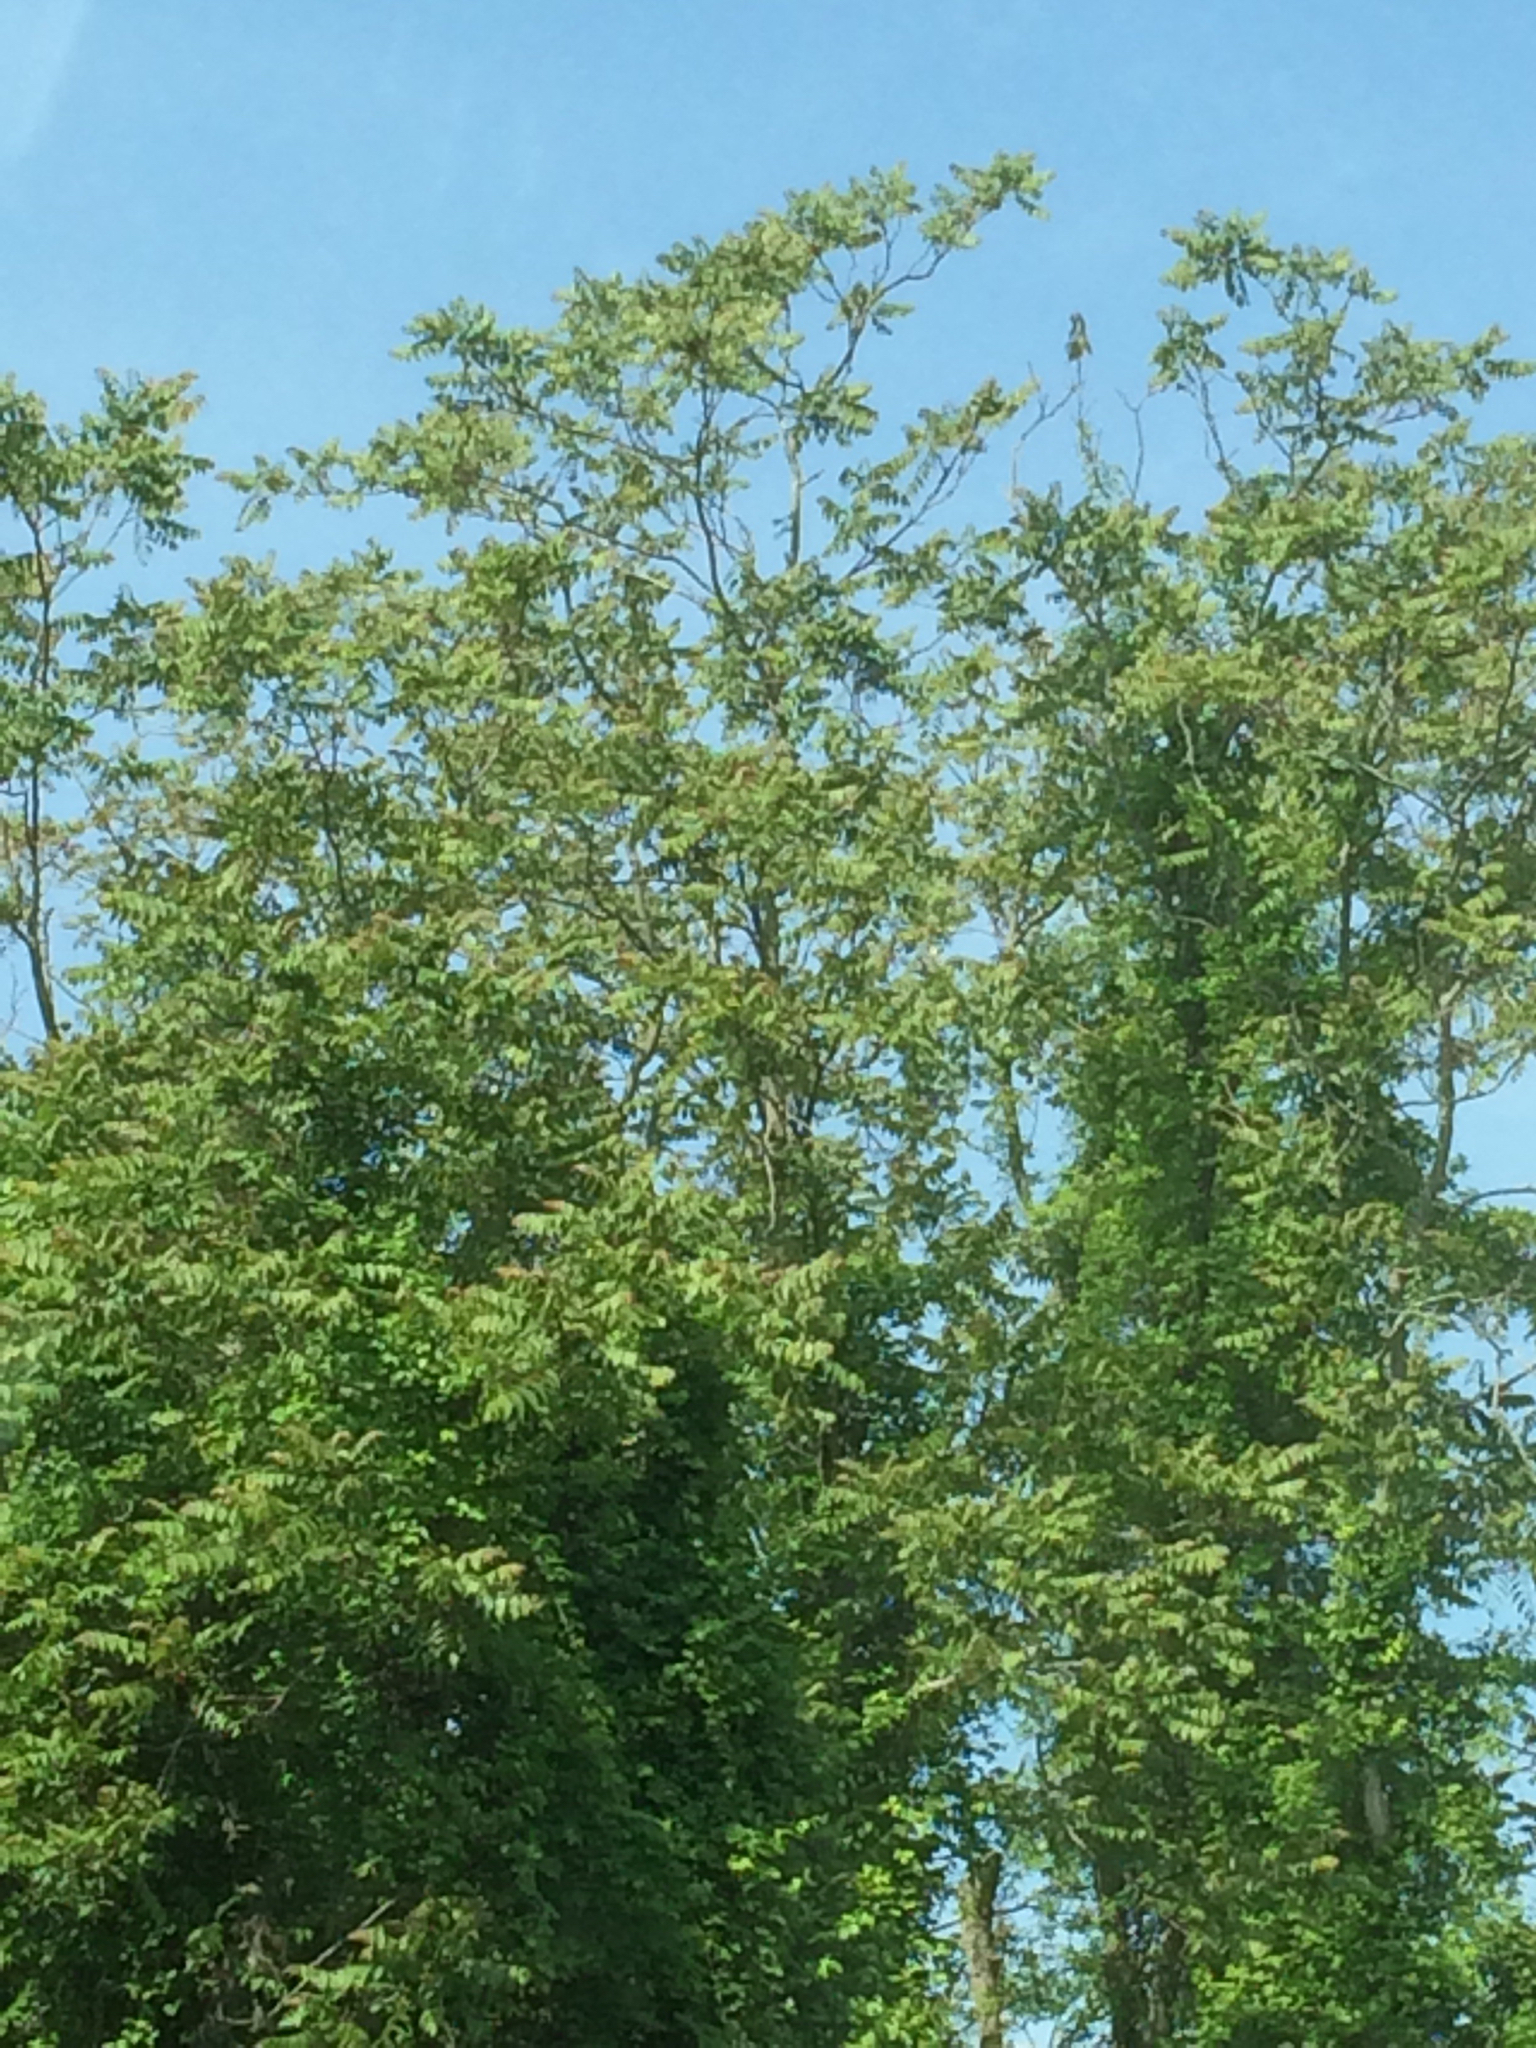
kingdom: Plantae
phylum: Tracheophyta
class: Magnoliopsida
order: Sapindales
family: Simaroubaceae
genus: Ailanthus
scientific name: Ailanthus altissima
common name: Tree-of-heaven
